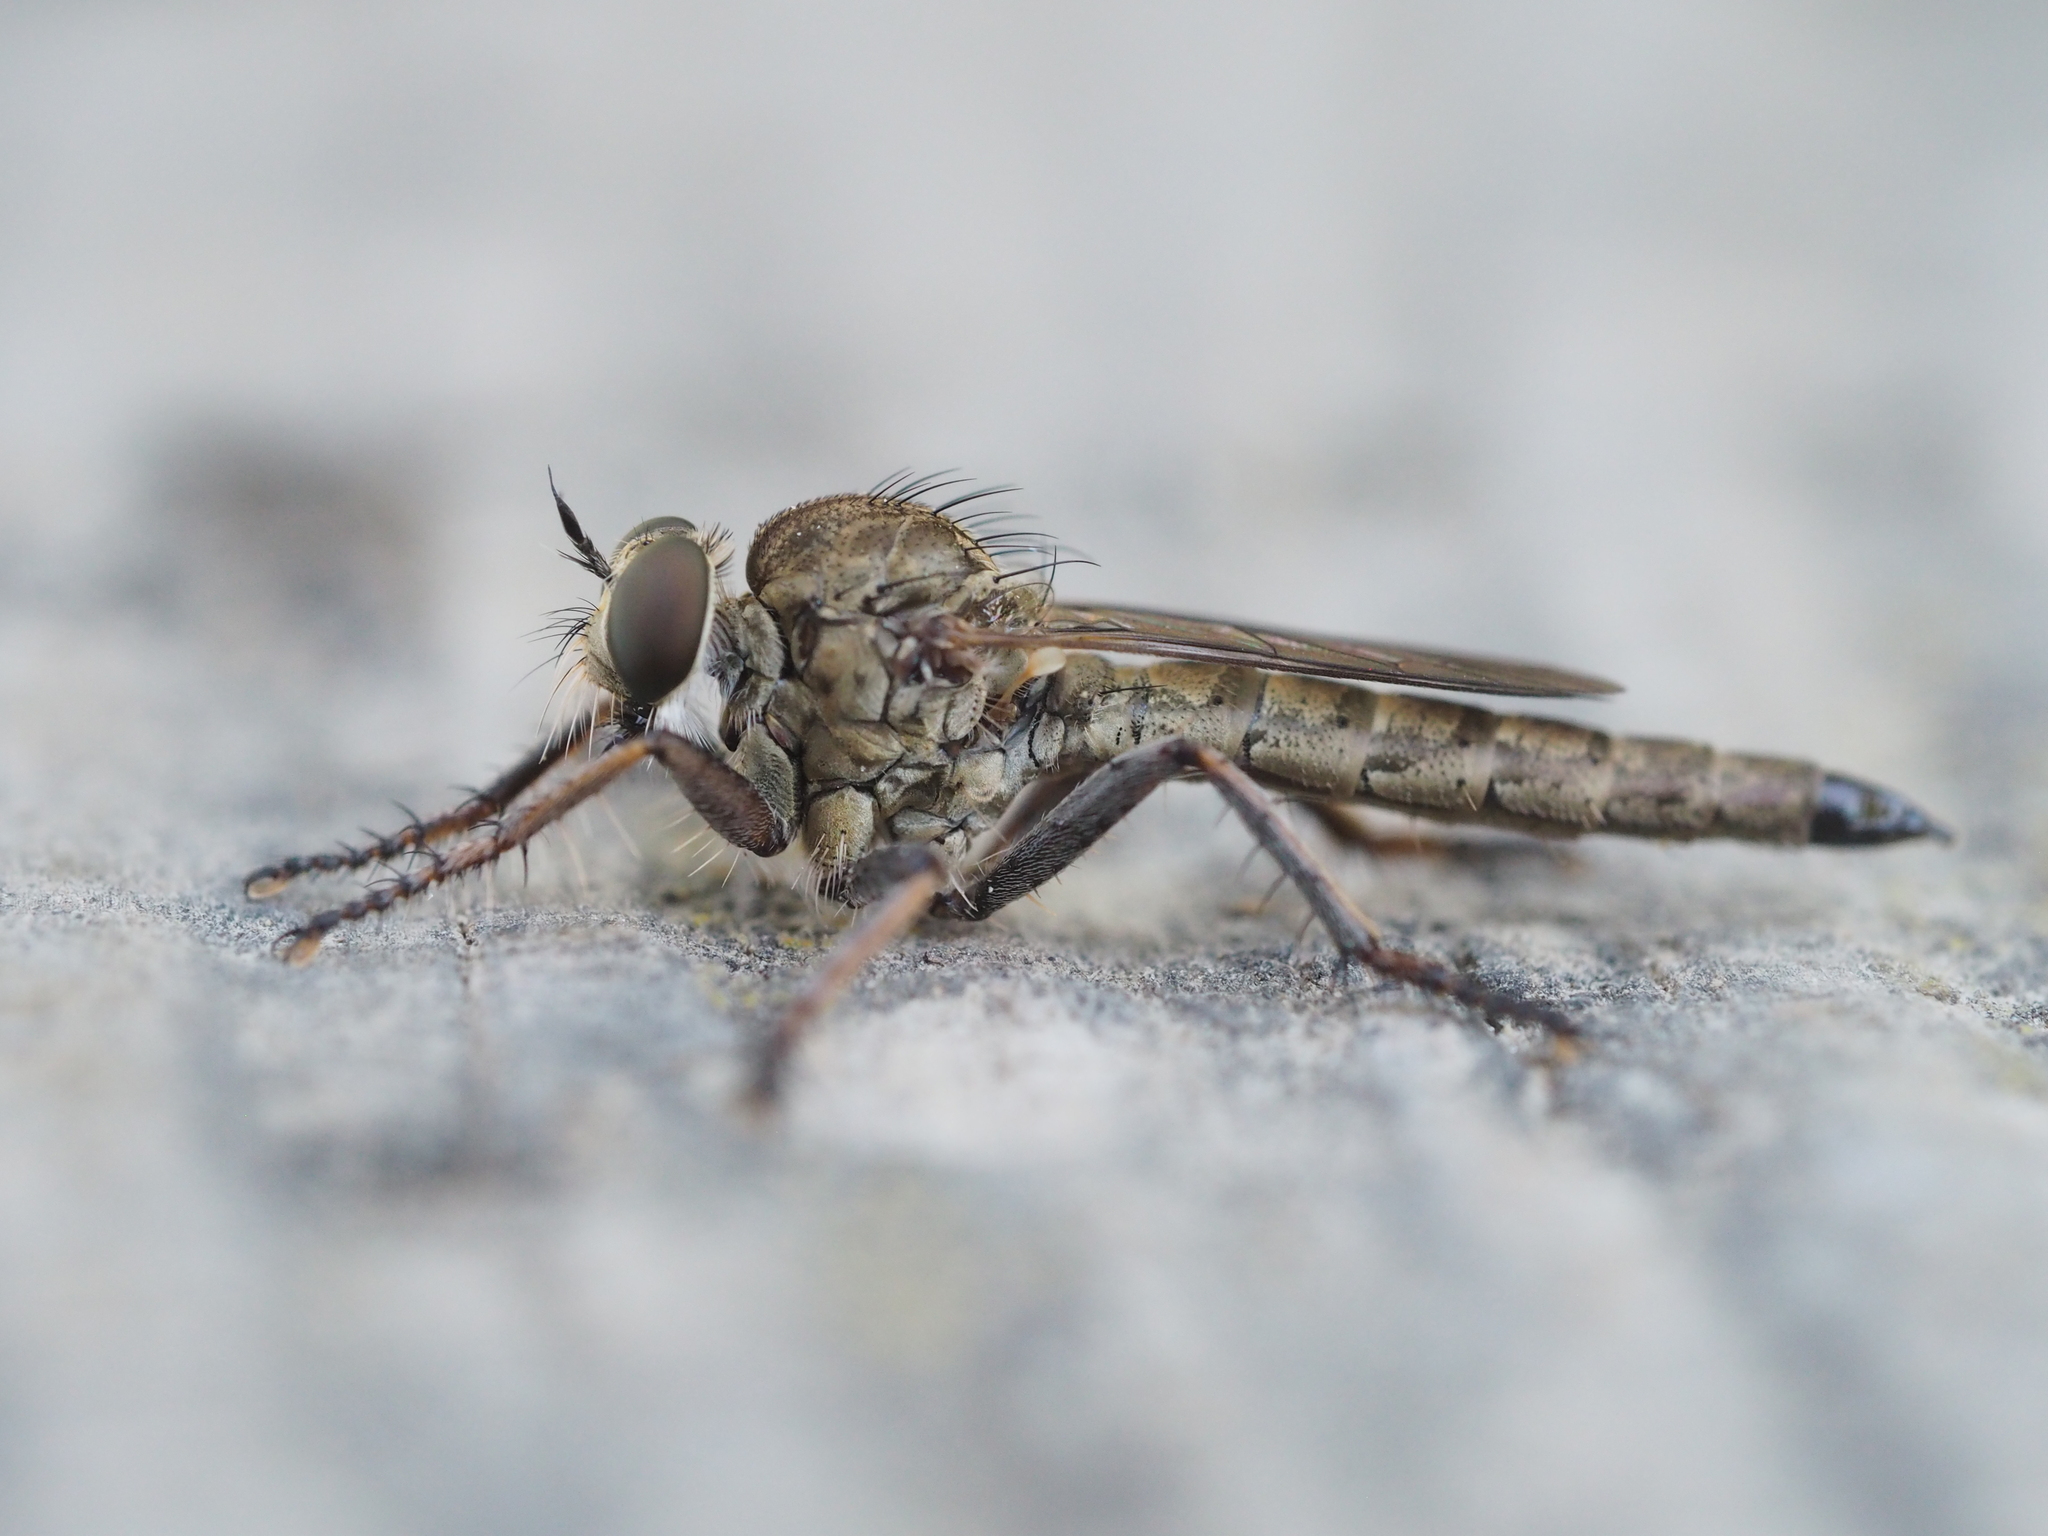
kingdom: Animalia
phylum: Arthropoda
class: Insecta
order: Diptera
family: Asilidae
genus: Epitriptus
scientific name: Epitriptus setosulus
